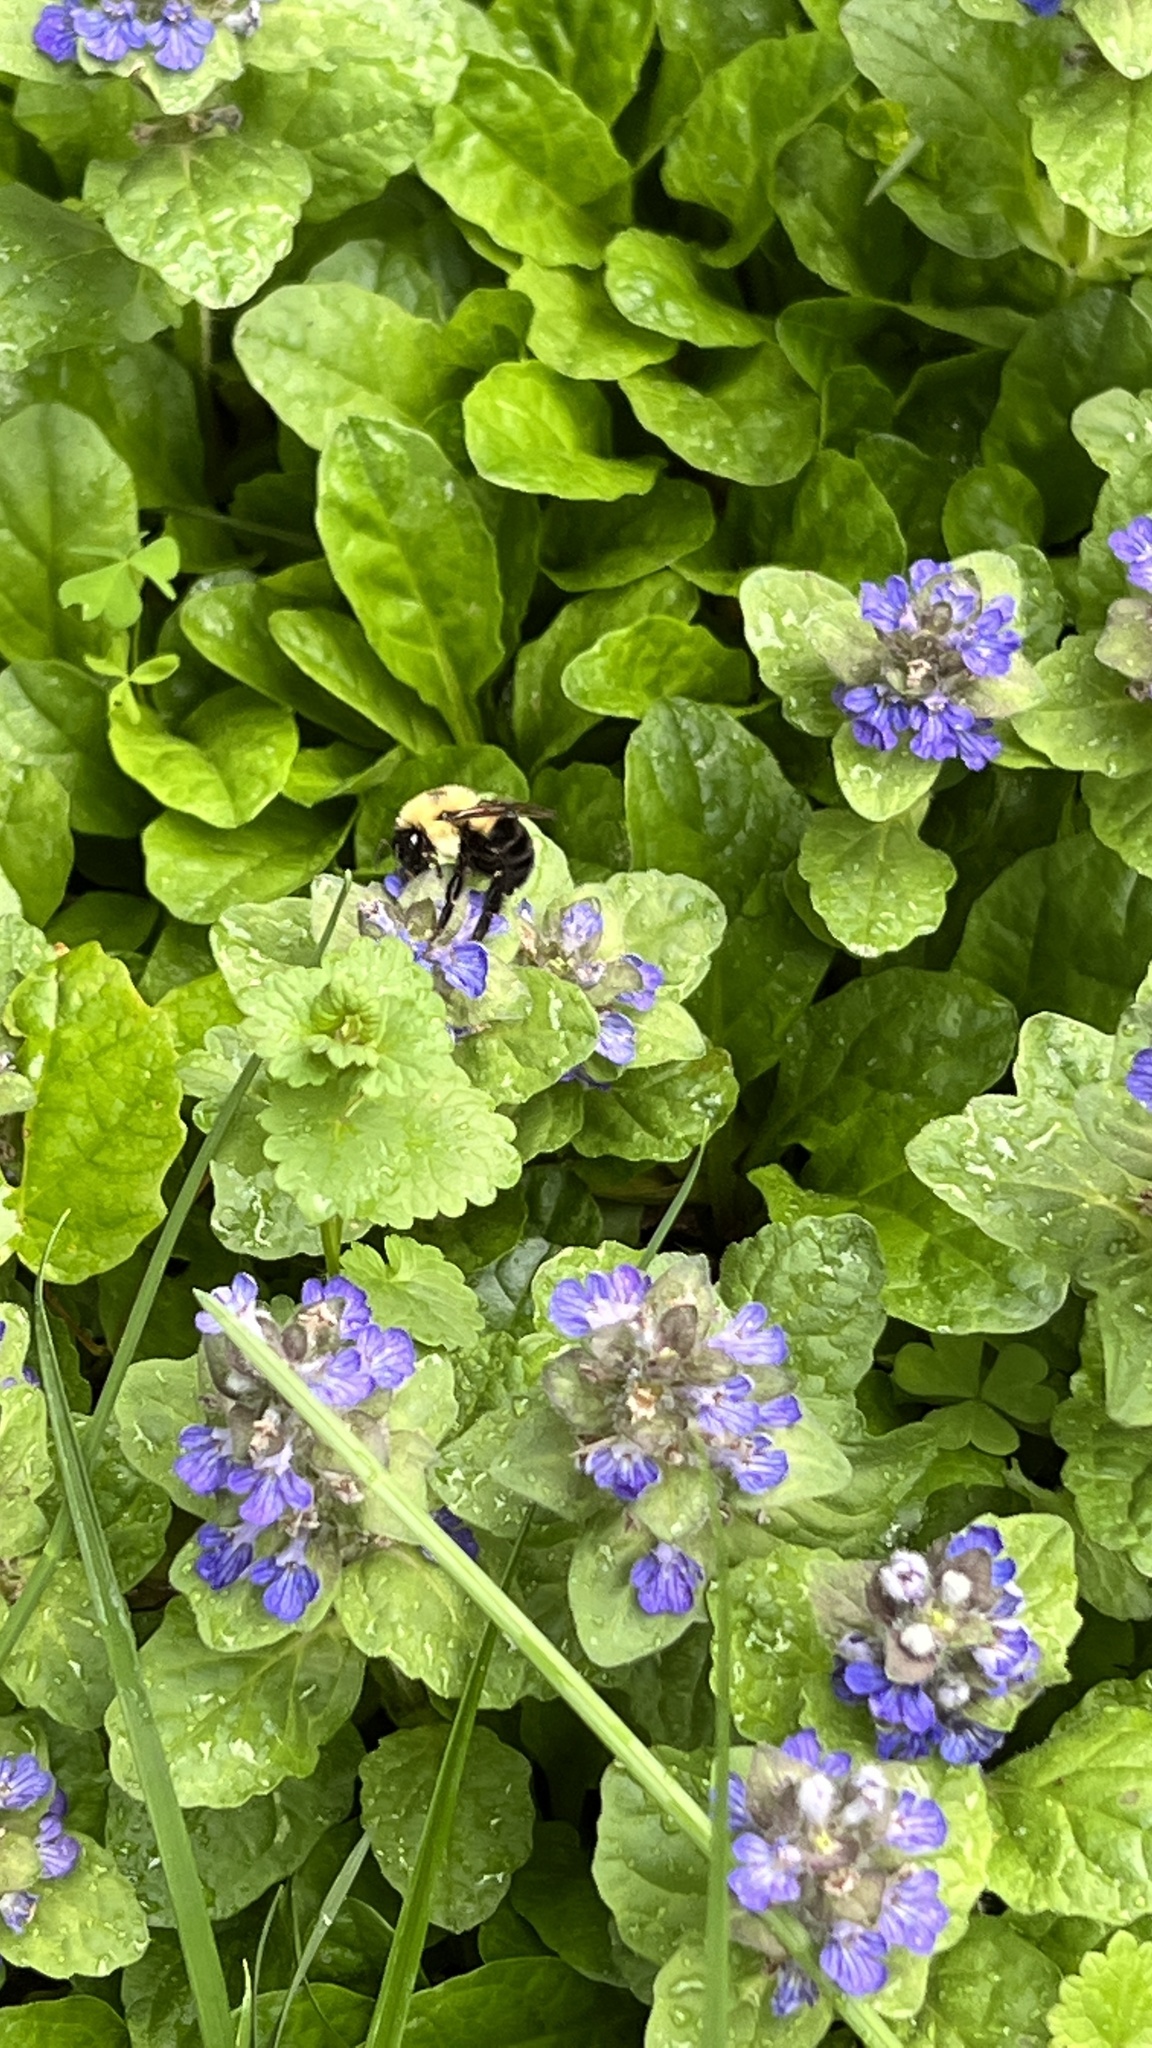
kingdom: Animalia
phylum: Arthropoda
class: Insecta
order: Hymenoptera
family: Apidae
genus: Bombus
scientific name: Bombus bimaculatus
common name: Two-spotted bumble bee
